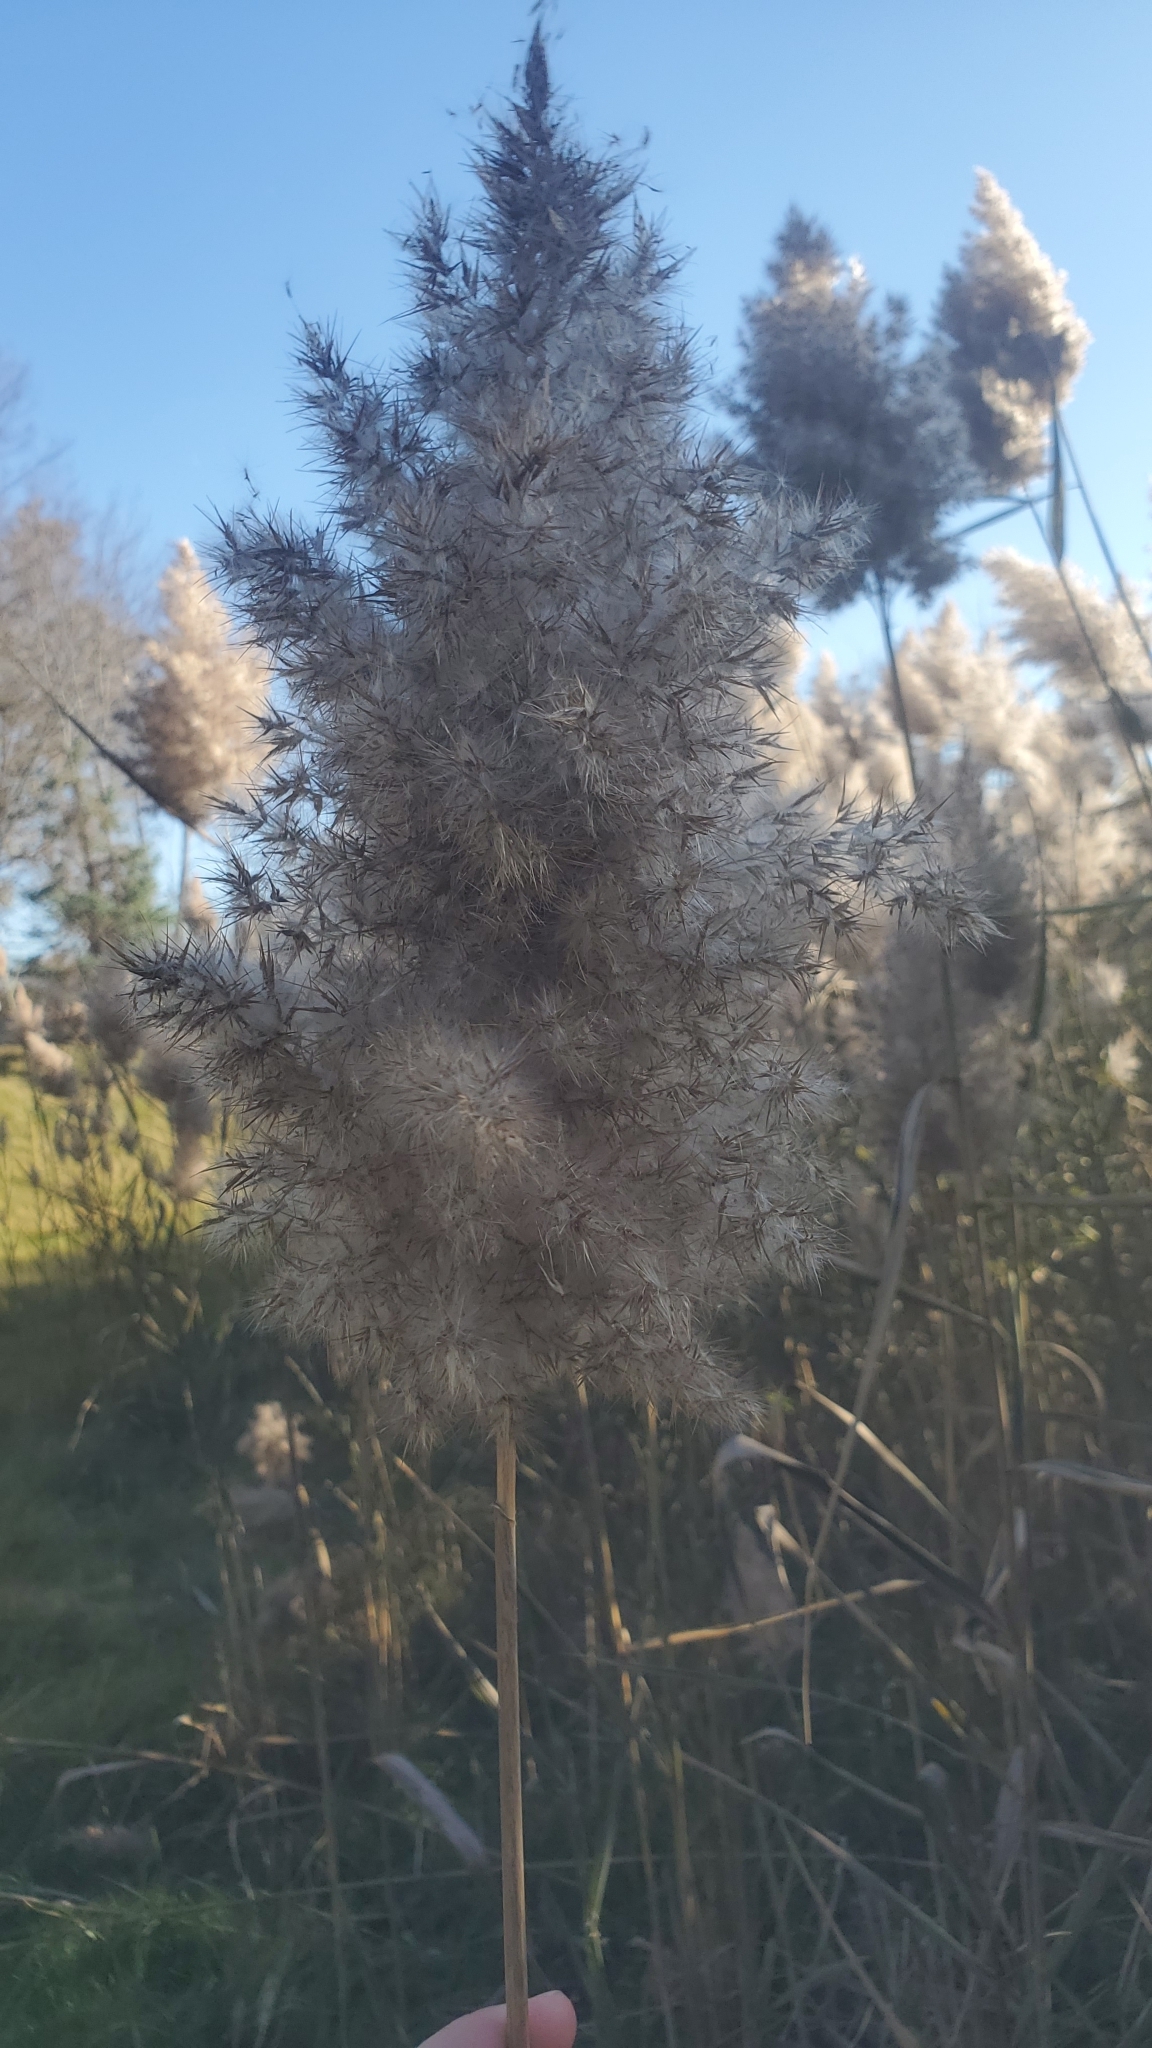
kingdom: Plantae
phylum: Tracheophyta
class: Liliopsida
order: Poales
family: Poaceae
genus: Phragmites
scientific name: Phragmites australis
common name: Common reed
